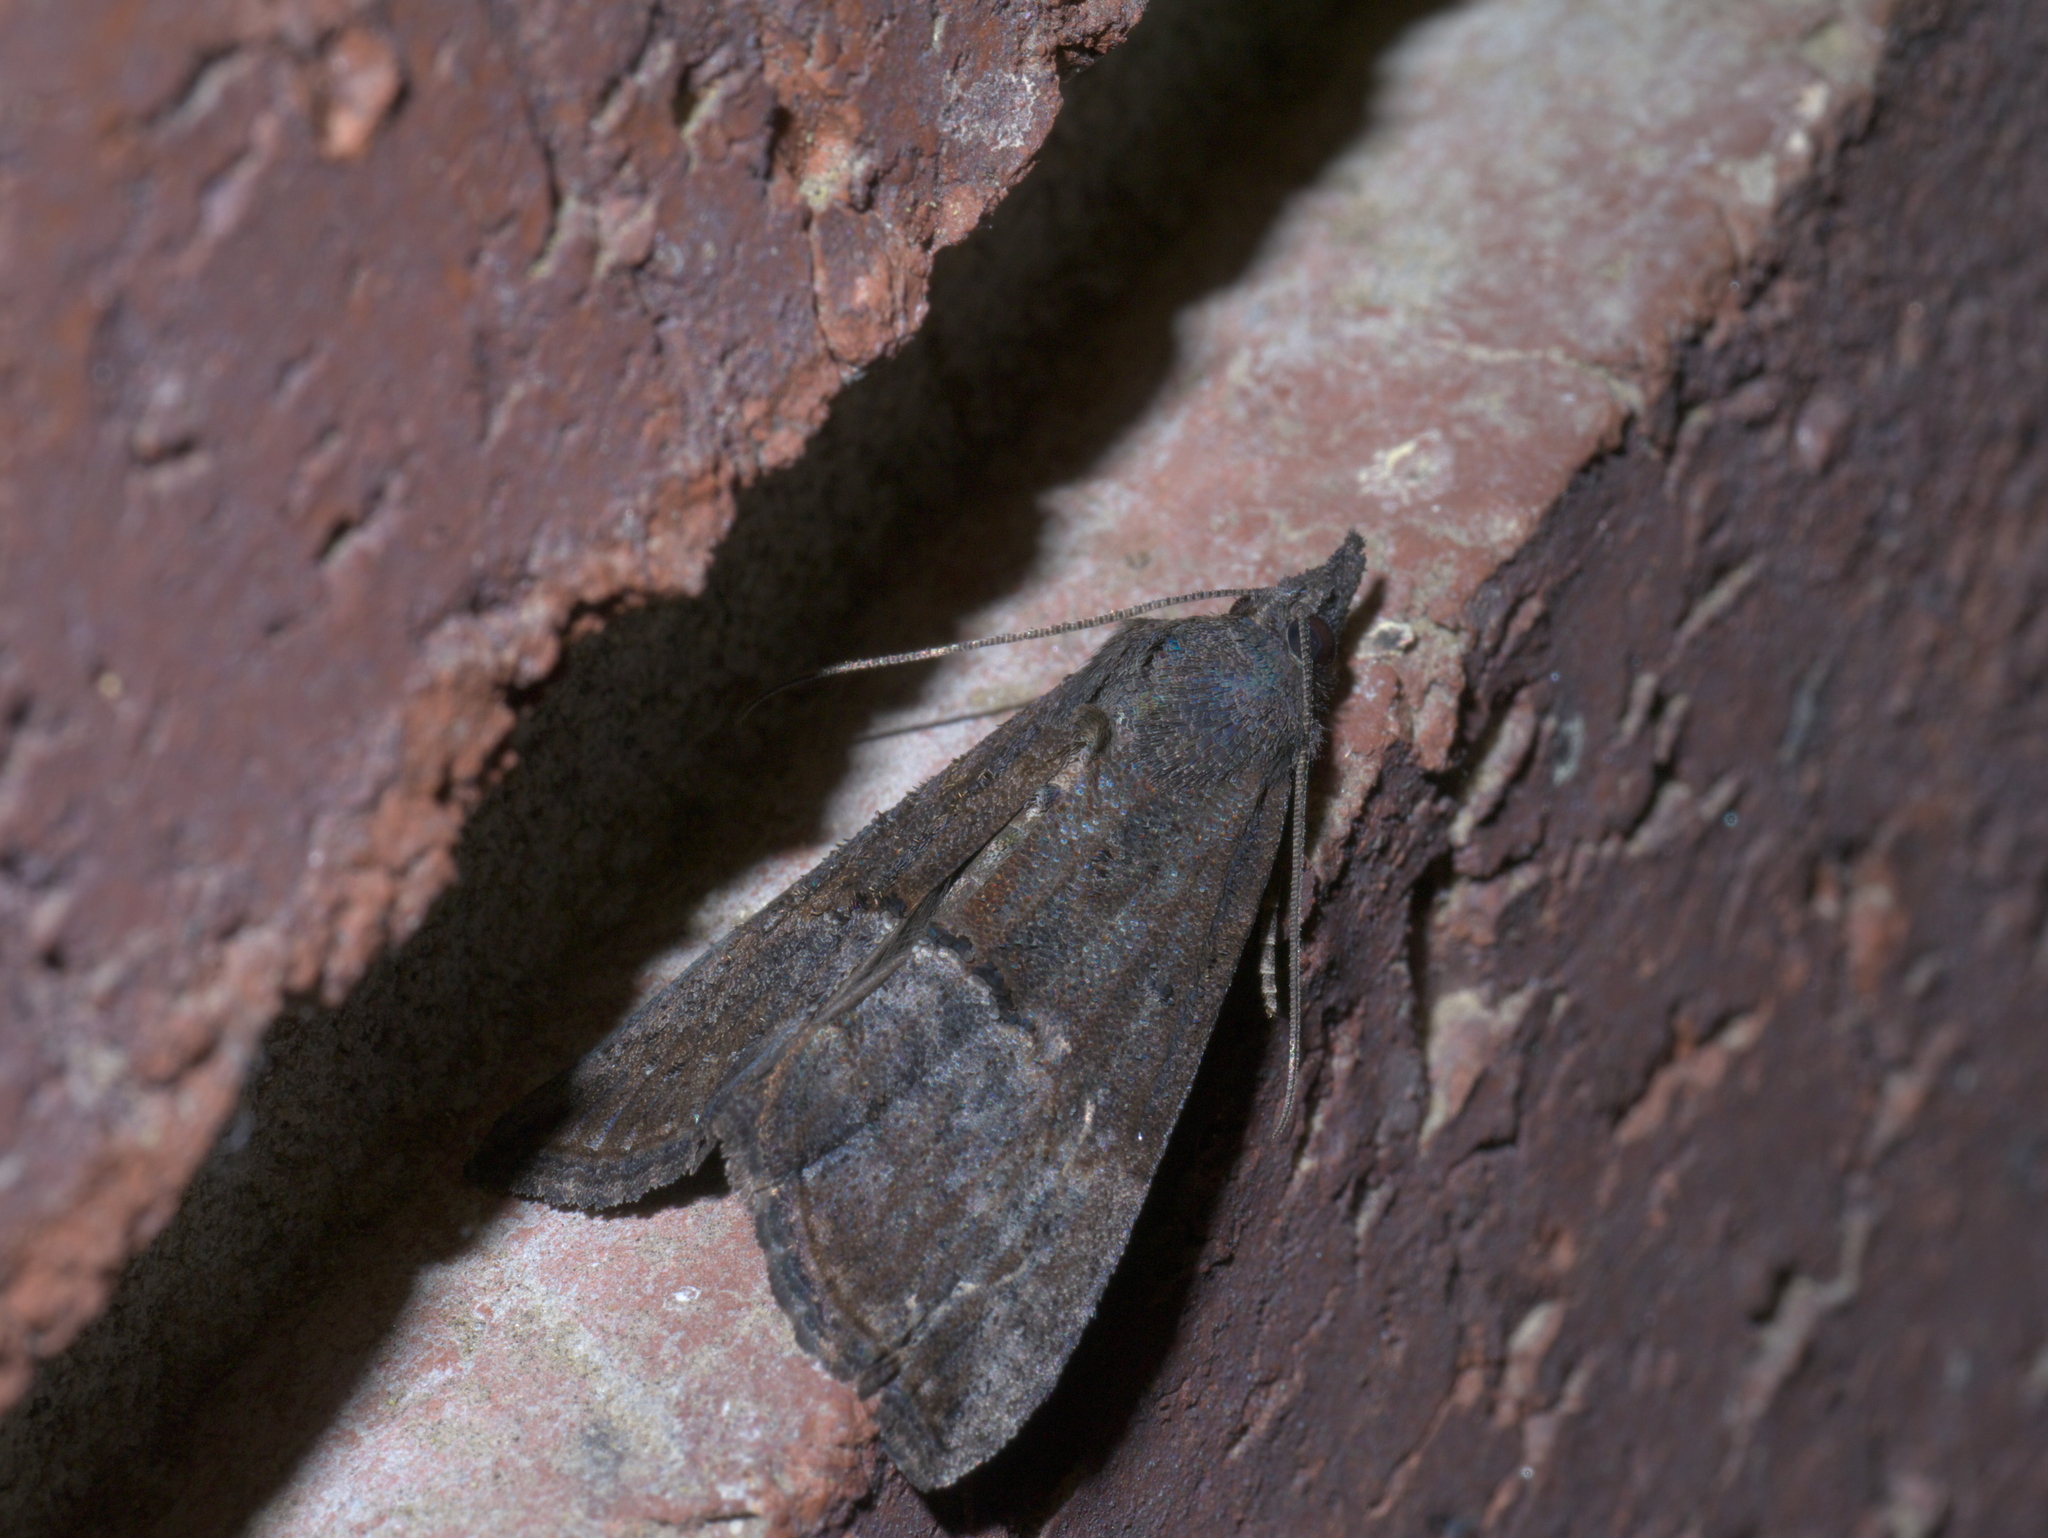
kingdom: Animalia
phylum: Arthropoda
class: Insecta
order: Lepidoptera
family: Erebidae
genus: Hypena
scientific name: Hypena scabra
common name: Green cloverworm
